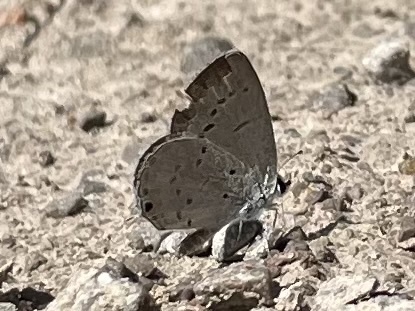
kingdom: Animalia
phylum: Arthropoda
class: Insecta
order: Lepidoptera
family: Lycaenidae
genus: Elkalyce
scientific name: Elkalyce comyntas
